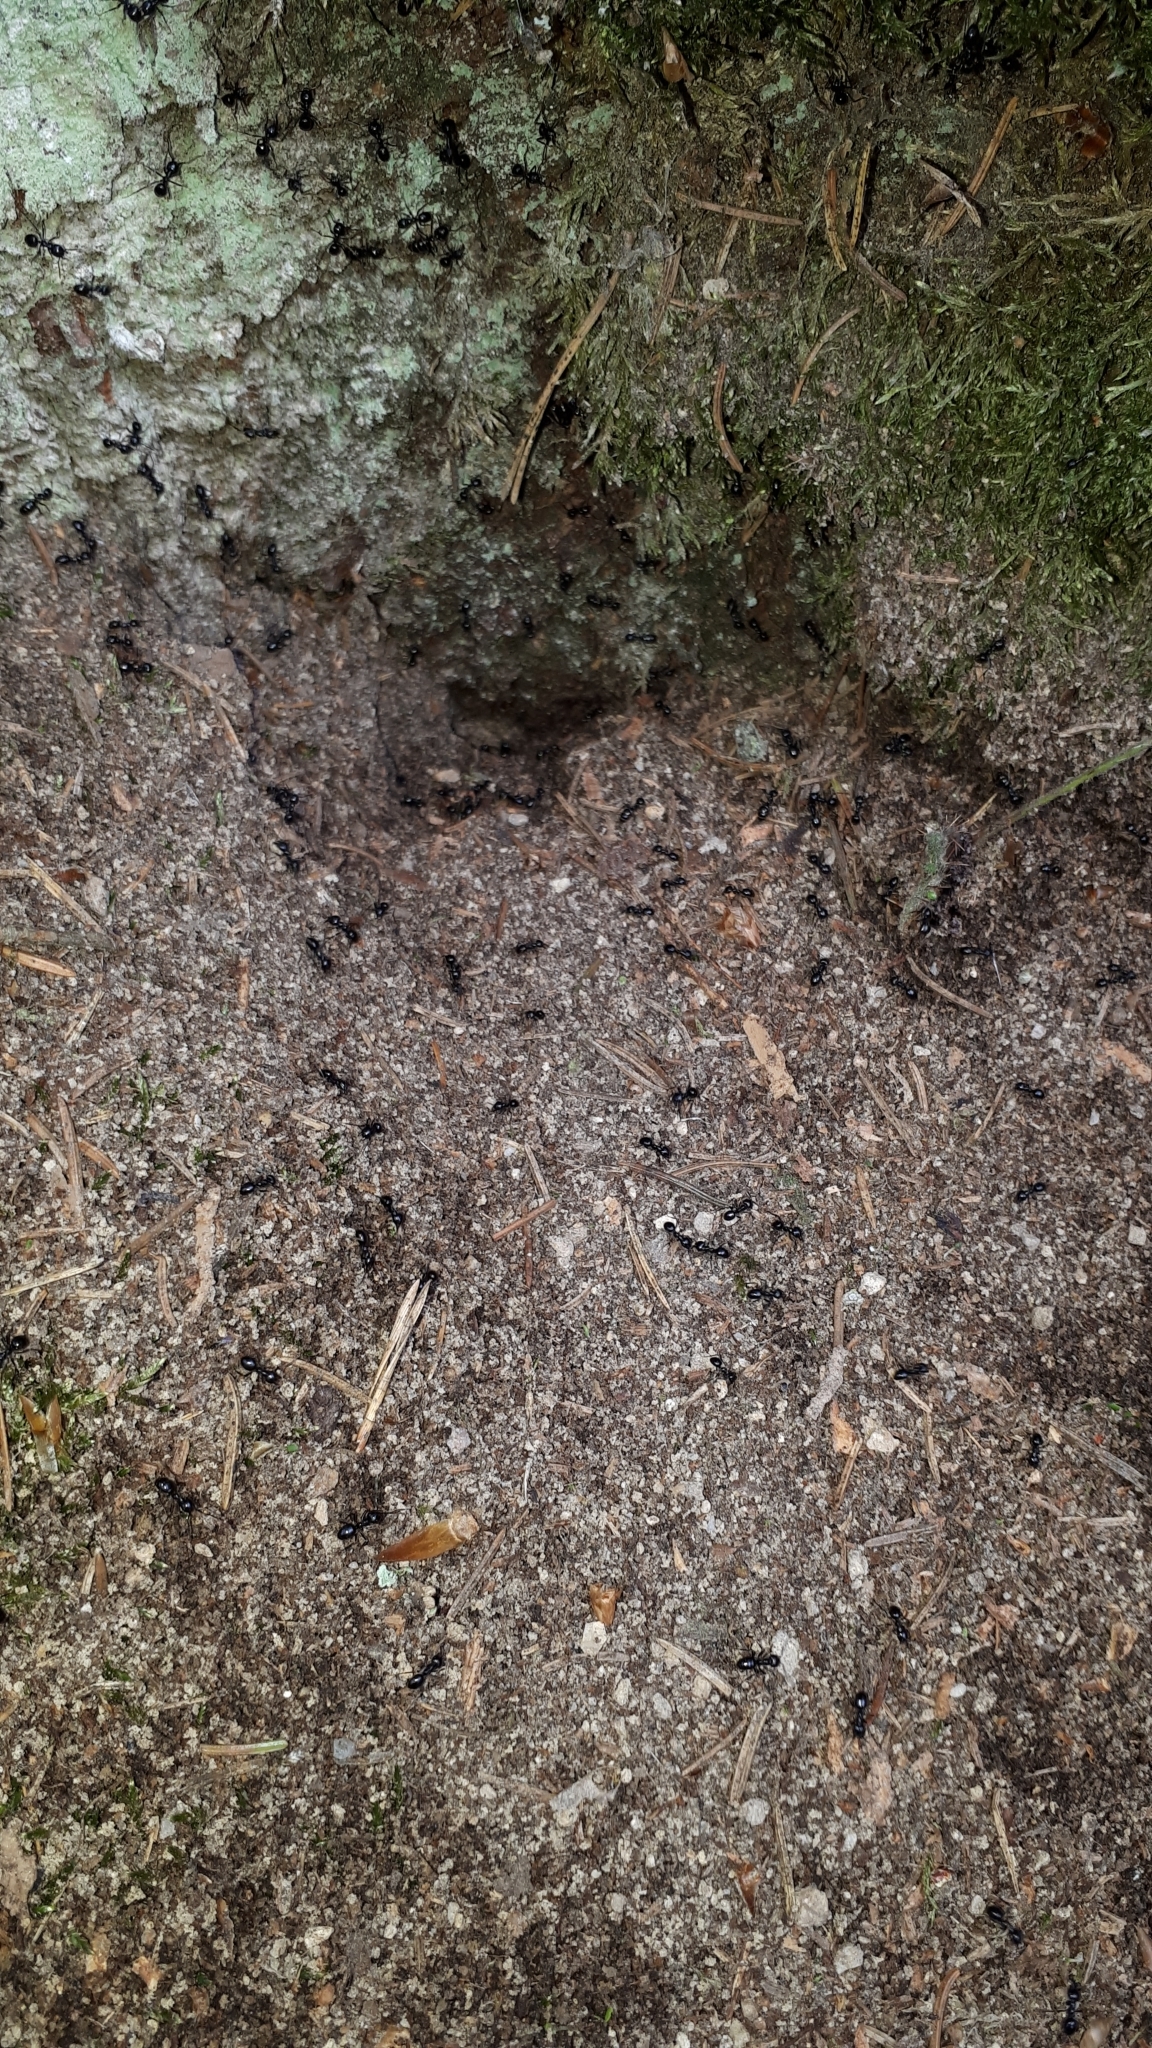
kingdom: Animalia
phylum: Arthropoda
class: Insecta
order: Hymenoptera
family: Formicidae
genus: Lasius
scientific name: Lasius fuliginosus
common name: Jet ant
